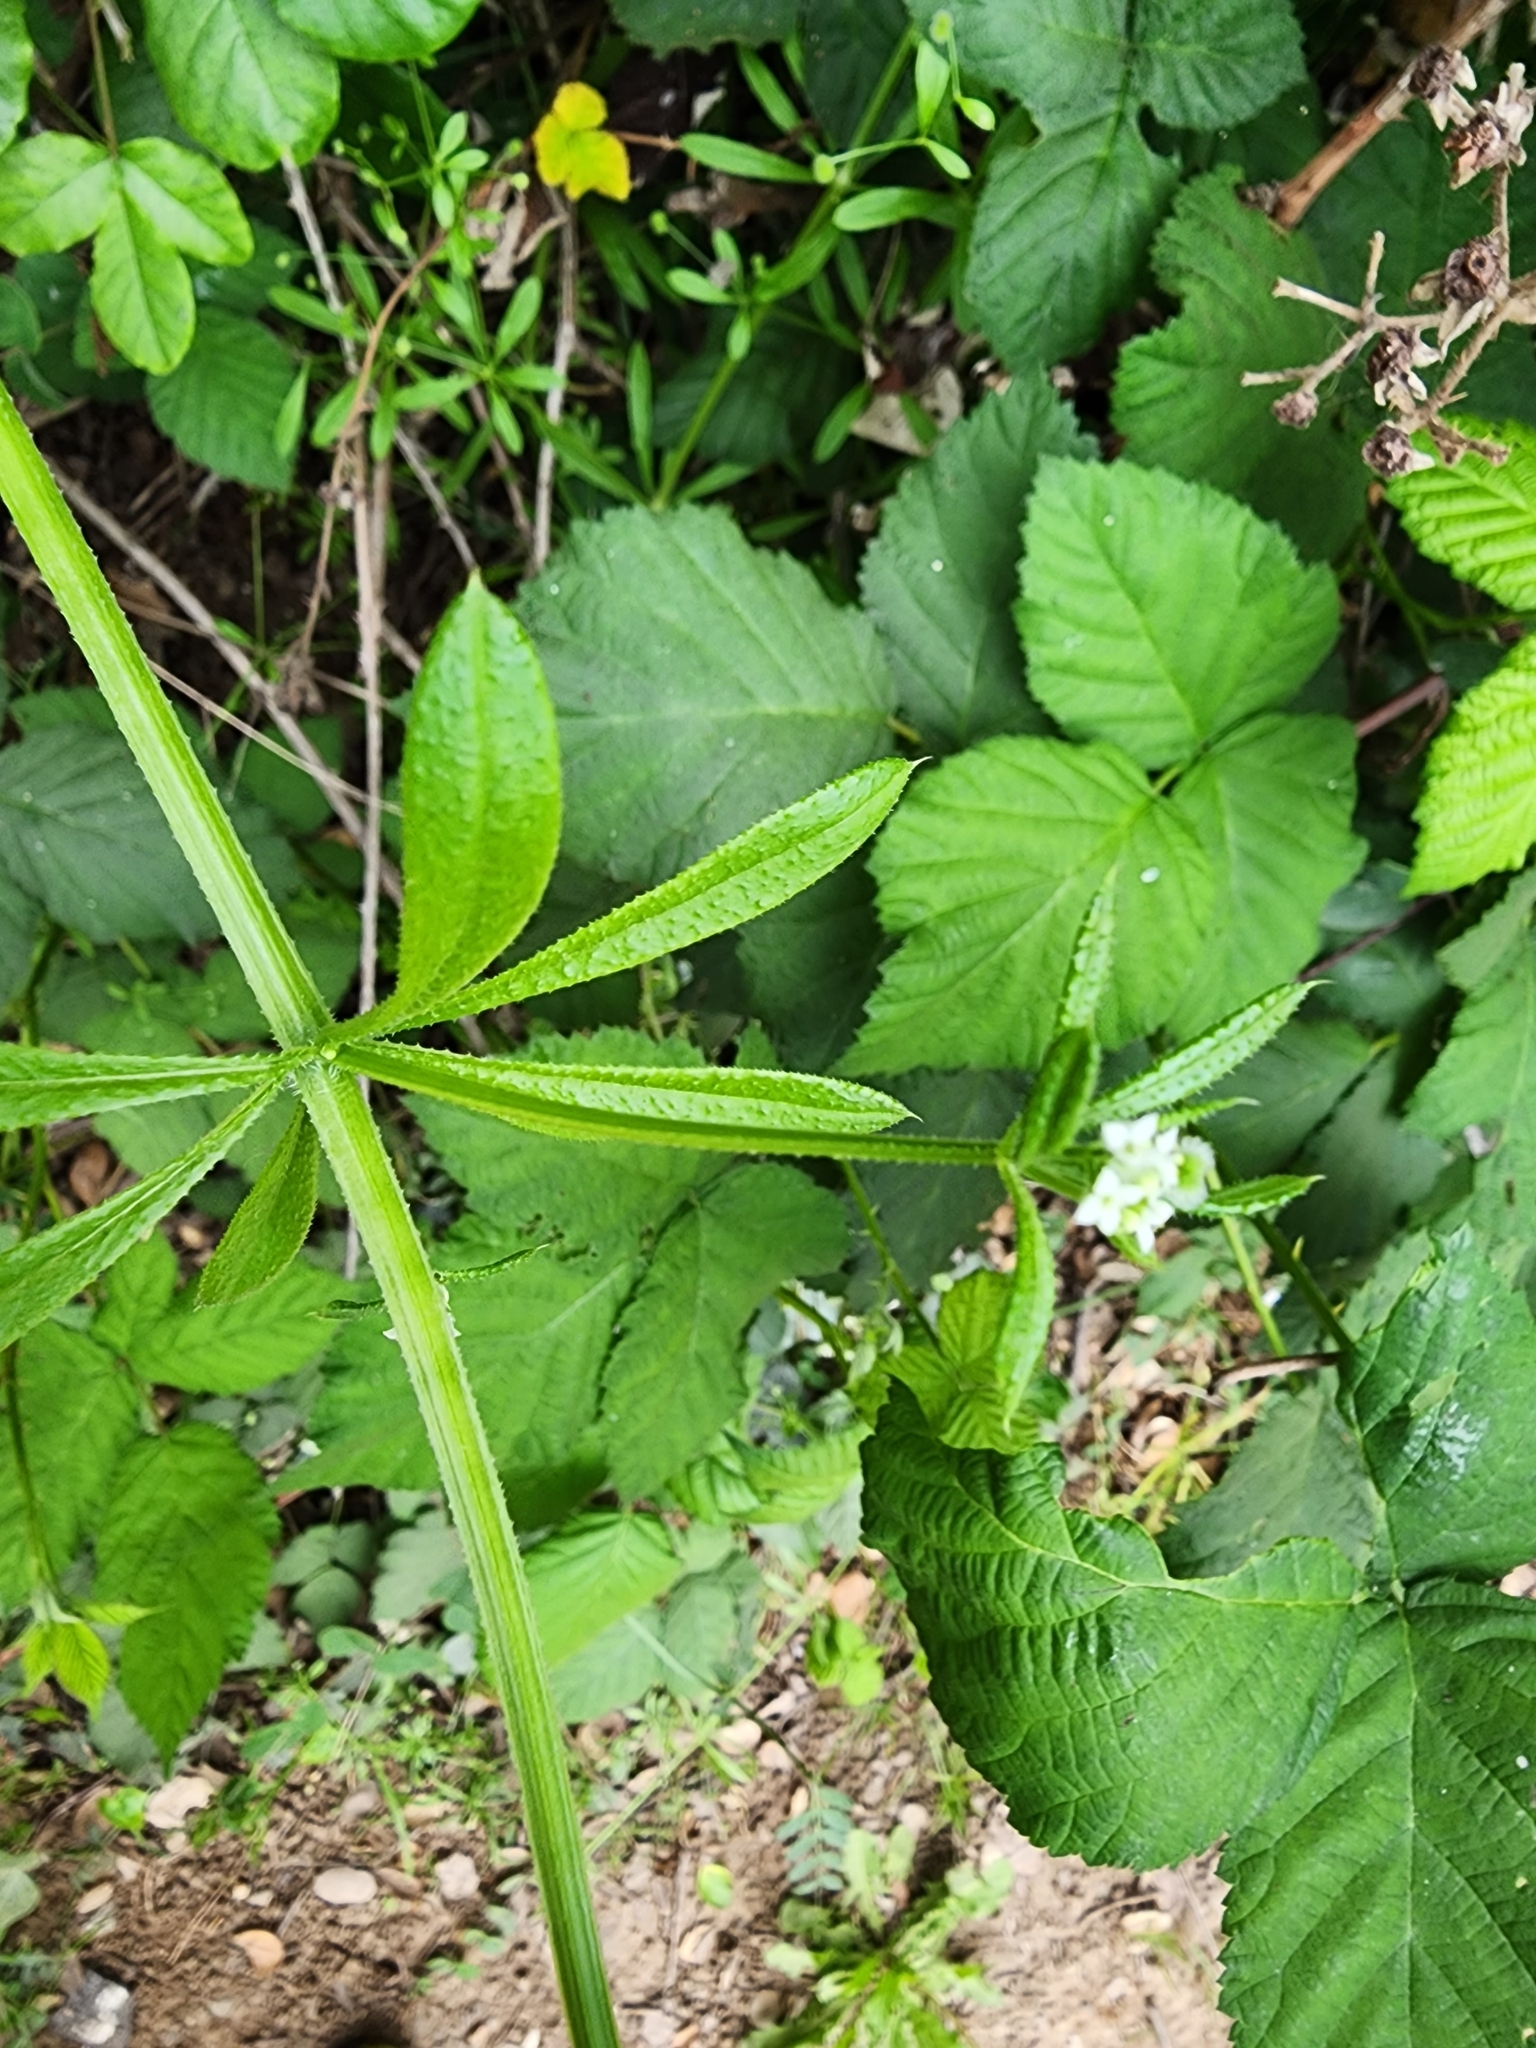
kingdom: Plantae
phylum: Tracheophyta
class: Magnoliopsida
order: Gentianales
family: Rubiaceae
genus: Galium
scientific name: Galium aparine
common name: Cleavers
